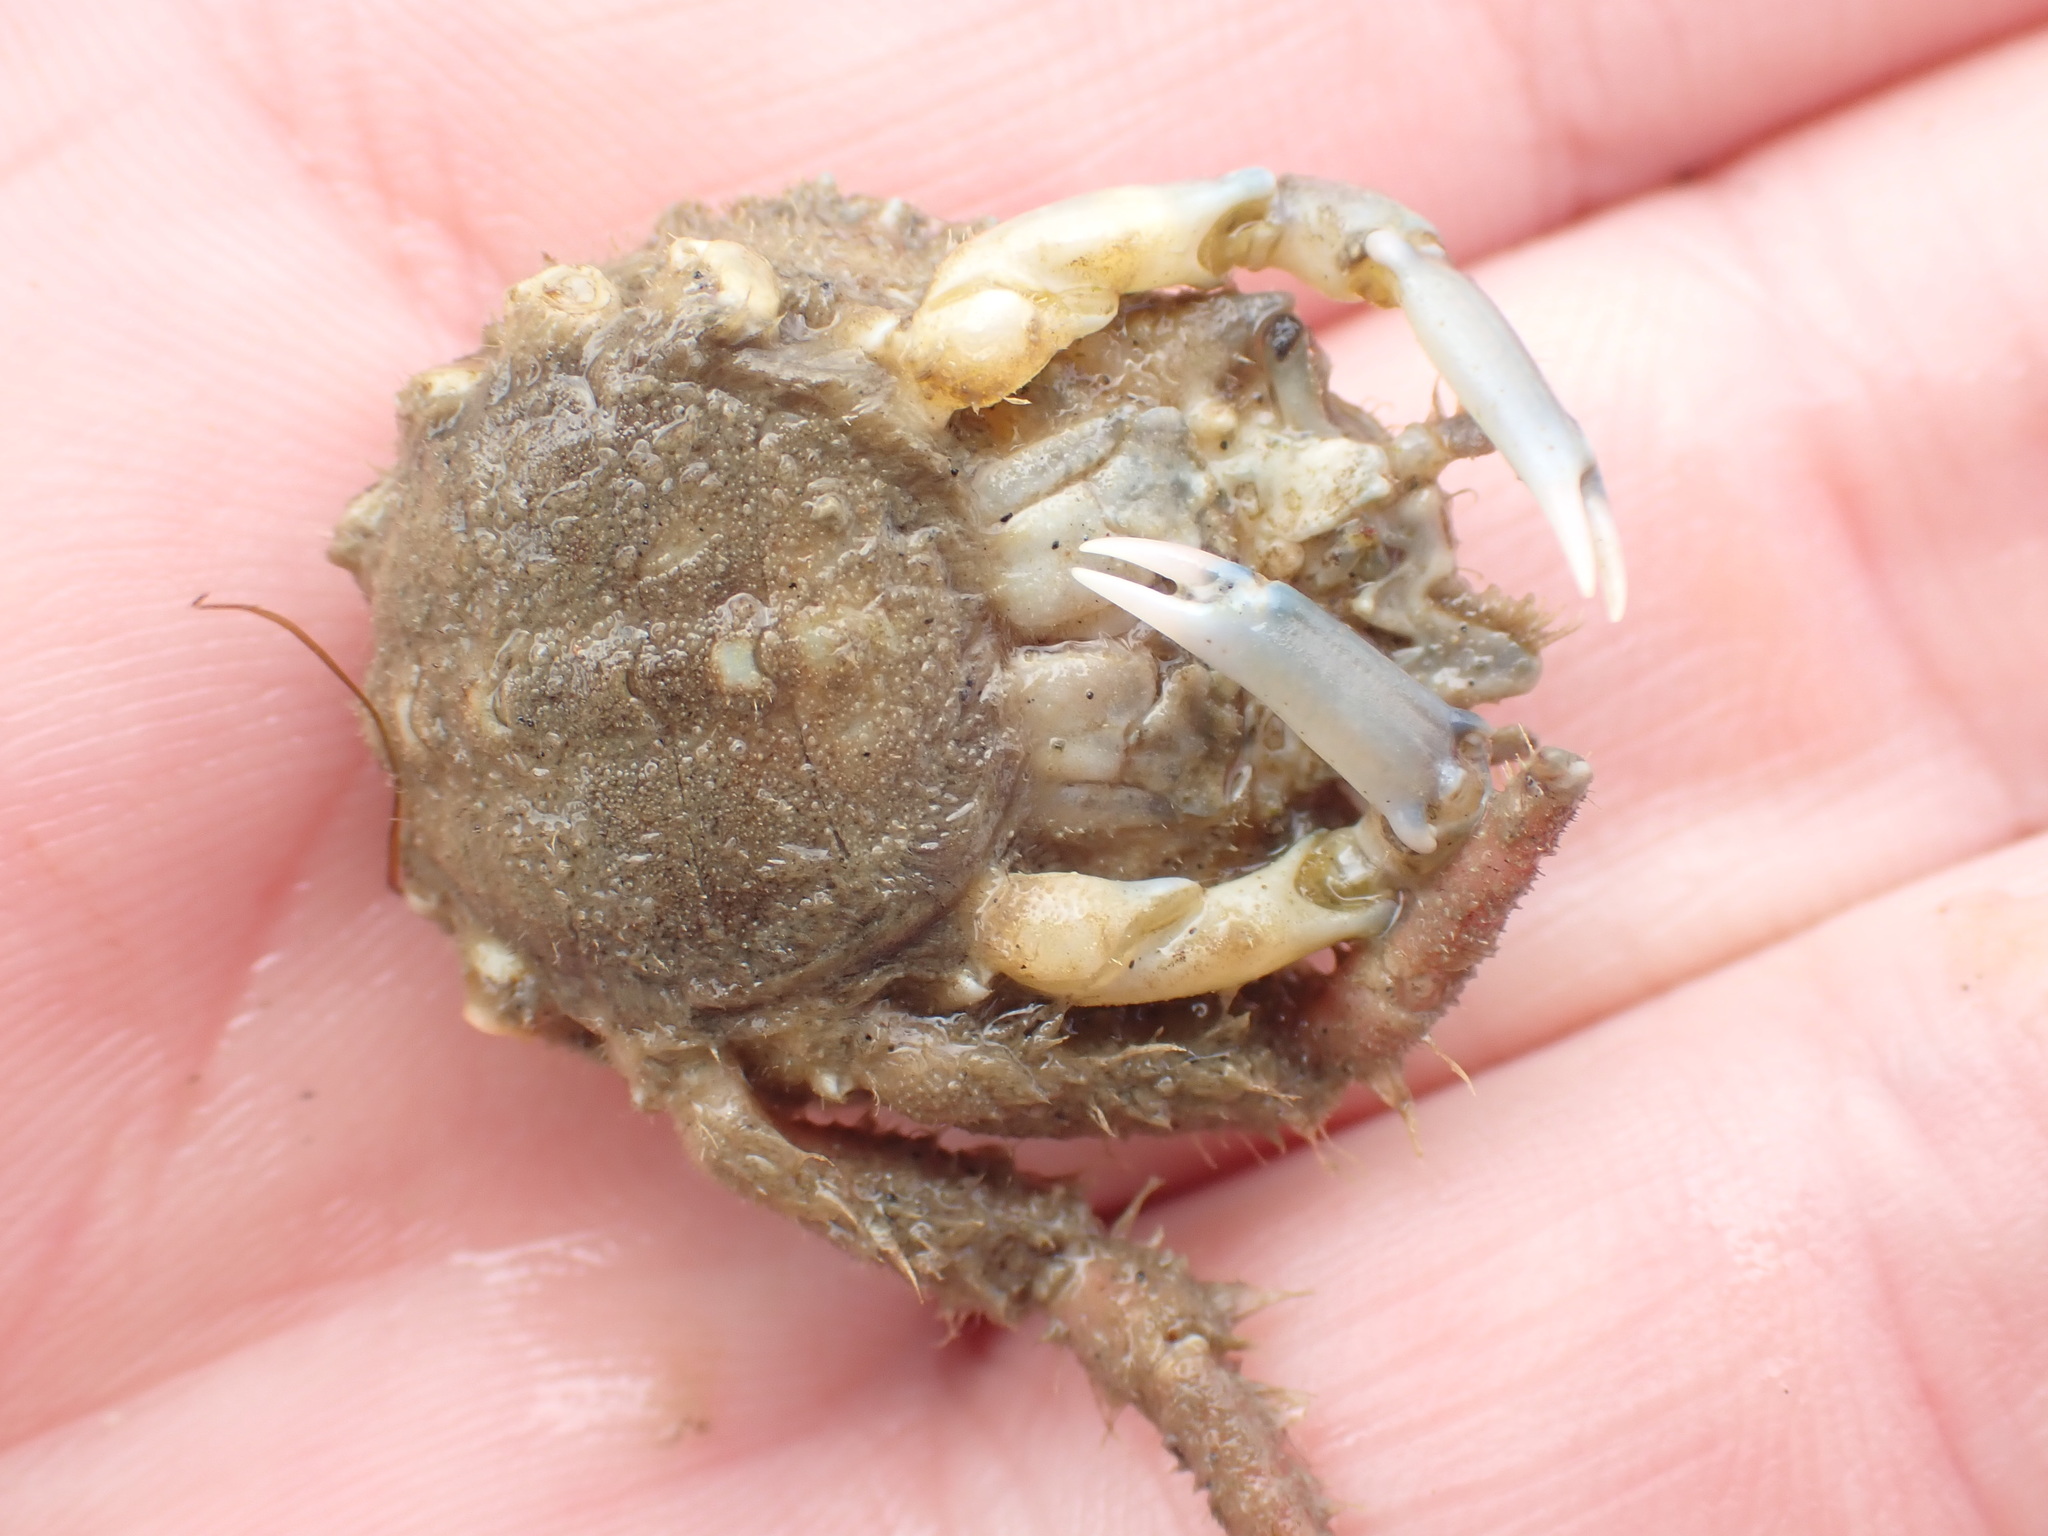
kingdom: Animalia
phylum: Arthropoda
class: Malacostraca
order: Decapoda
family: Majidae
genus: Notomithrax
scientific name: Notomithrax minor
